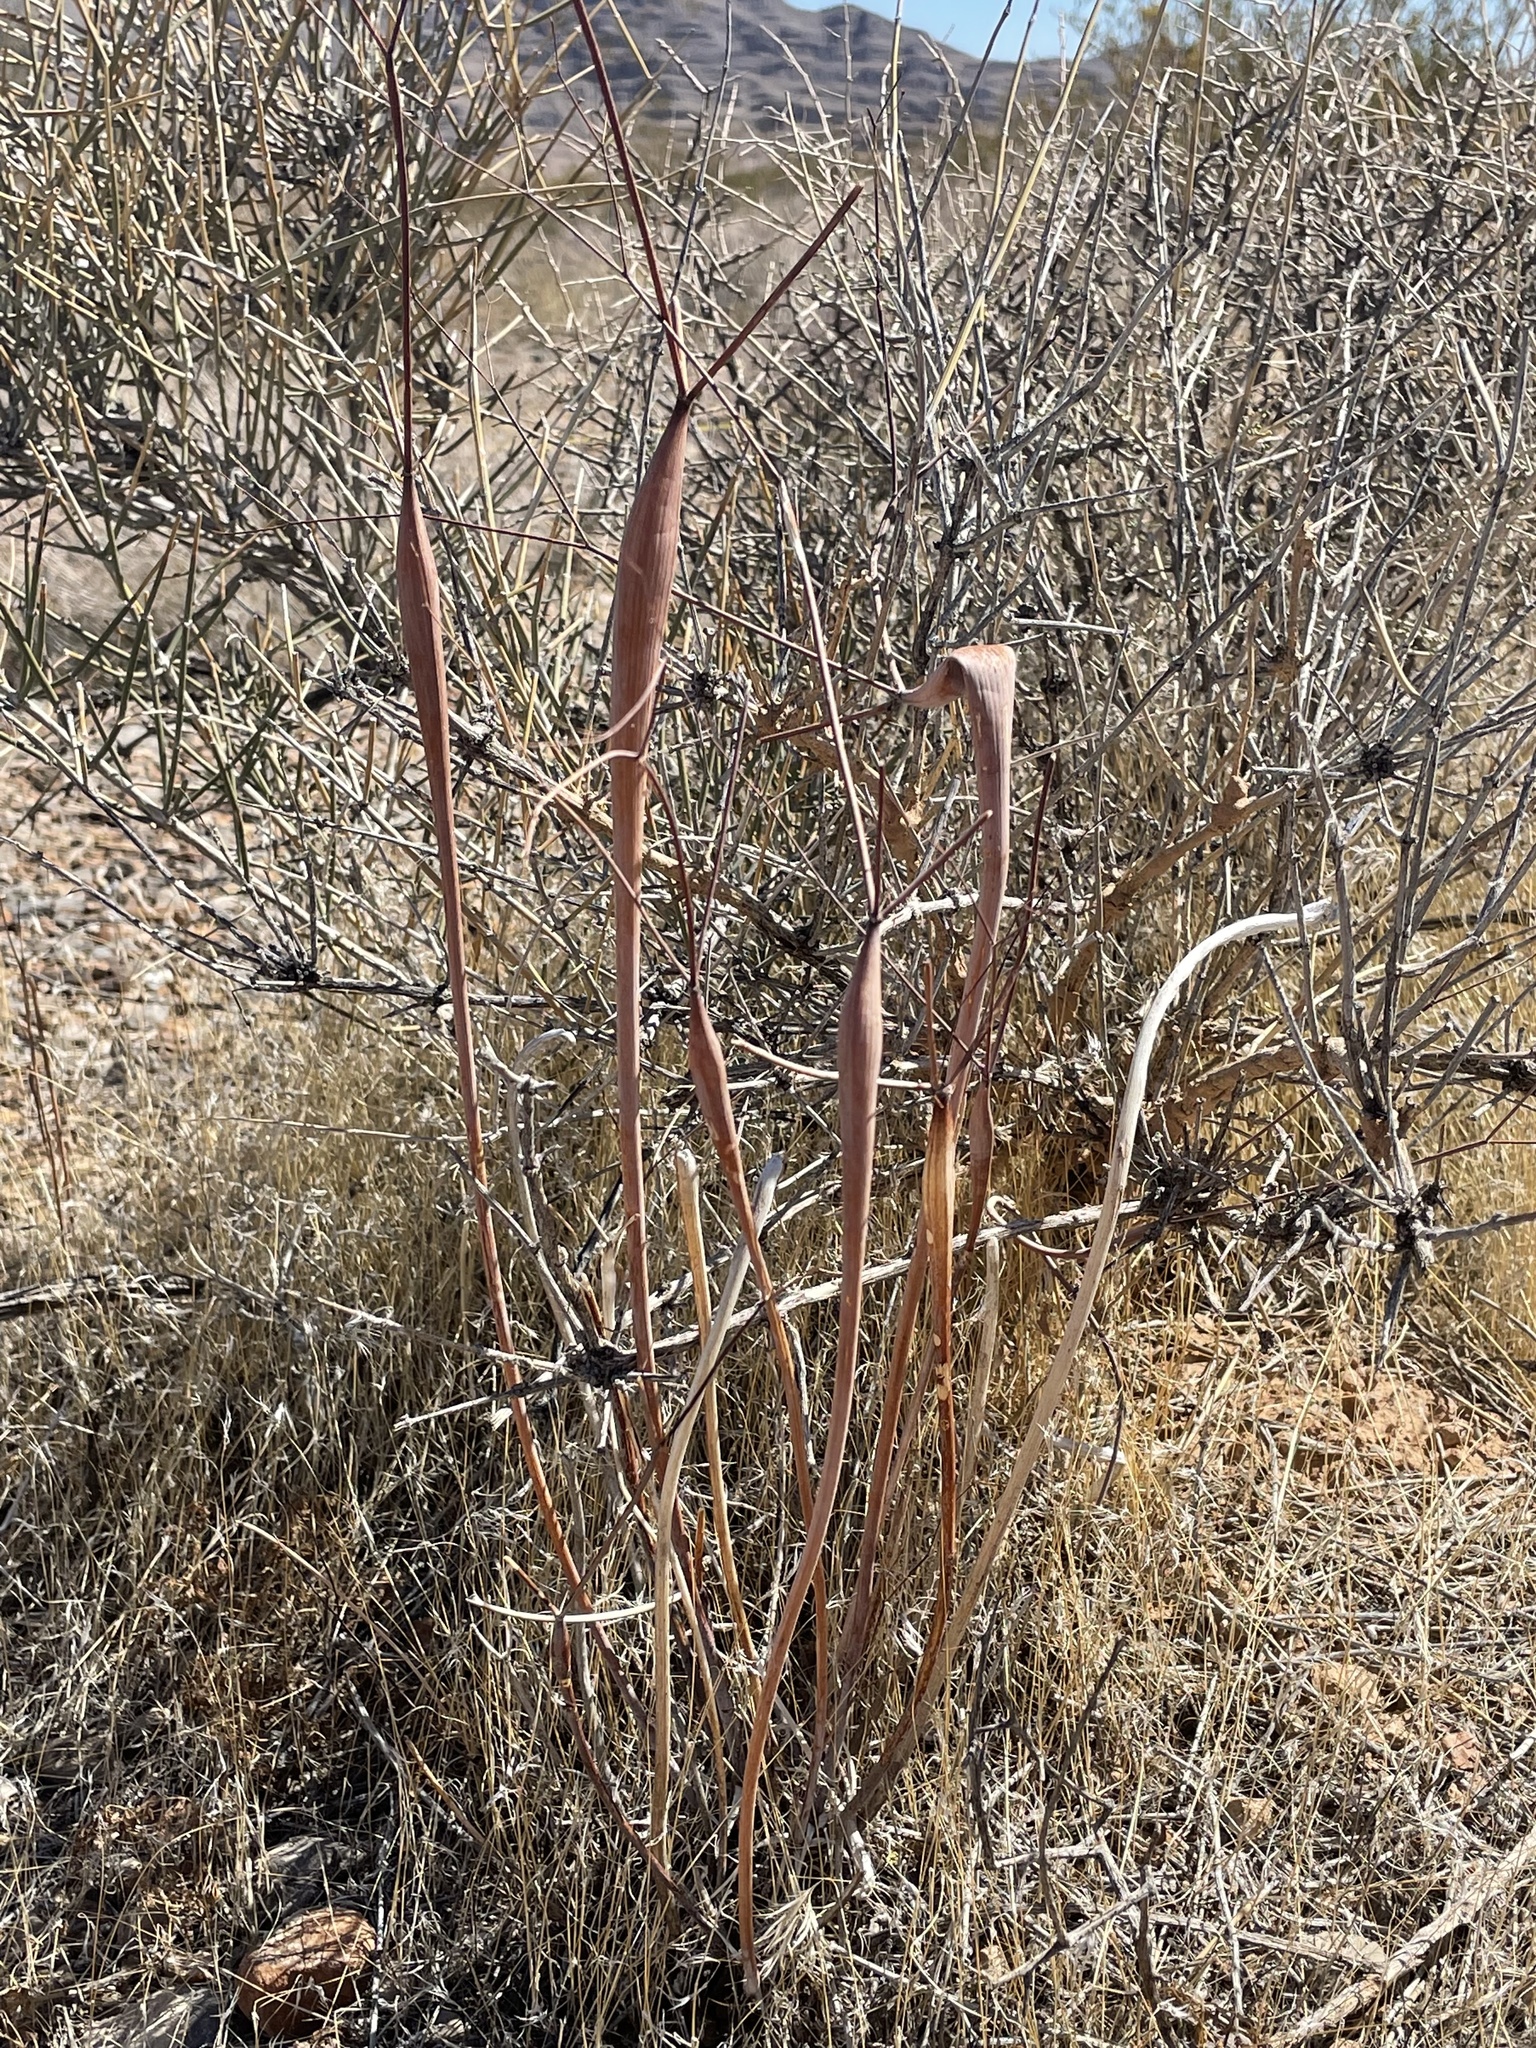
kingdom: Plantae
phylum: Tracheophyta
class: Magnoliopsida
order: Caryophyllales
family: Polygonaceae
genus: Eriogonum
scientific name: Eriogonum inflatum
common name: Desert trumpet
